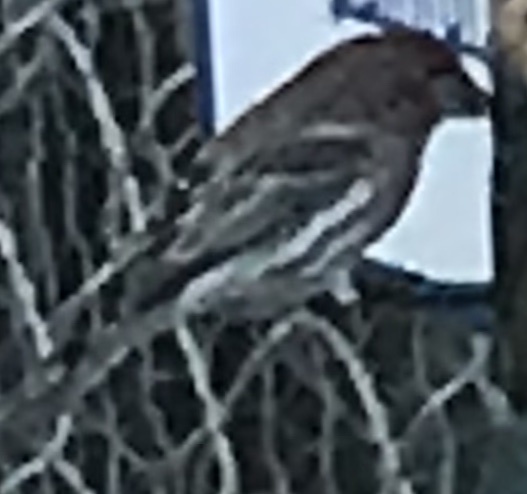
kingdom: Animalia
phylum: Chordata
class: Aves
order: Passeriformes
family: Fringillidae
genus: Haemorhous
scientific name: Haemorhous mexicanus
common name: House finch
